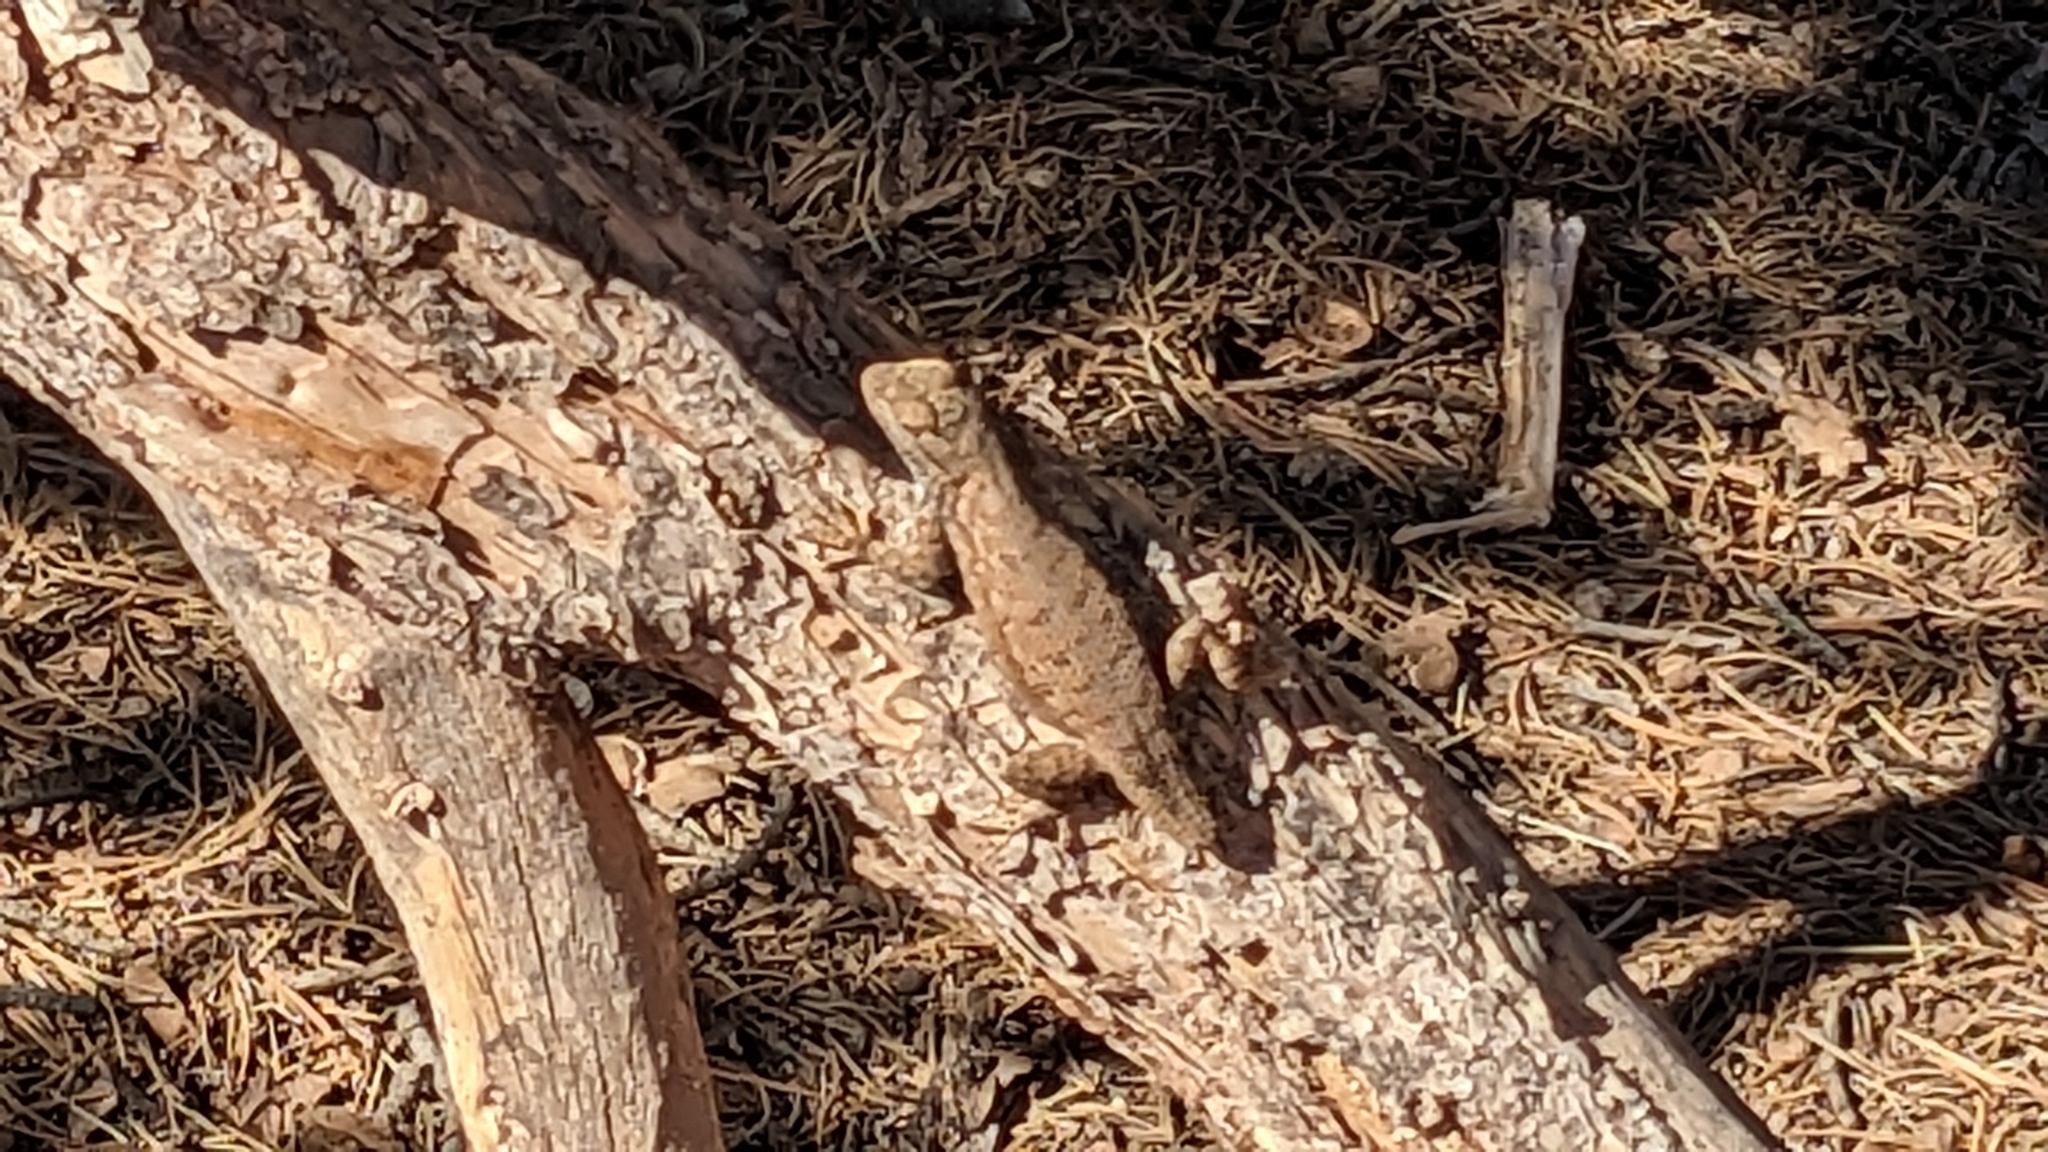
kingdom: Animalia
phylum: Chordata
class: Squamata
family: Phrynosomatidae
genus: Sceloporus
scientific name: Sceloporus tristichus
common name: Plateau fence lizard
